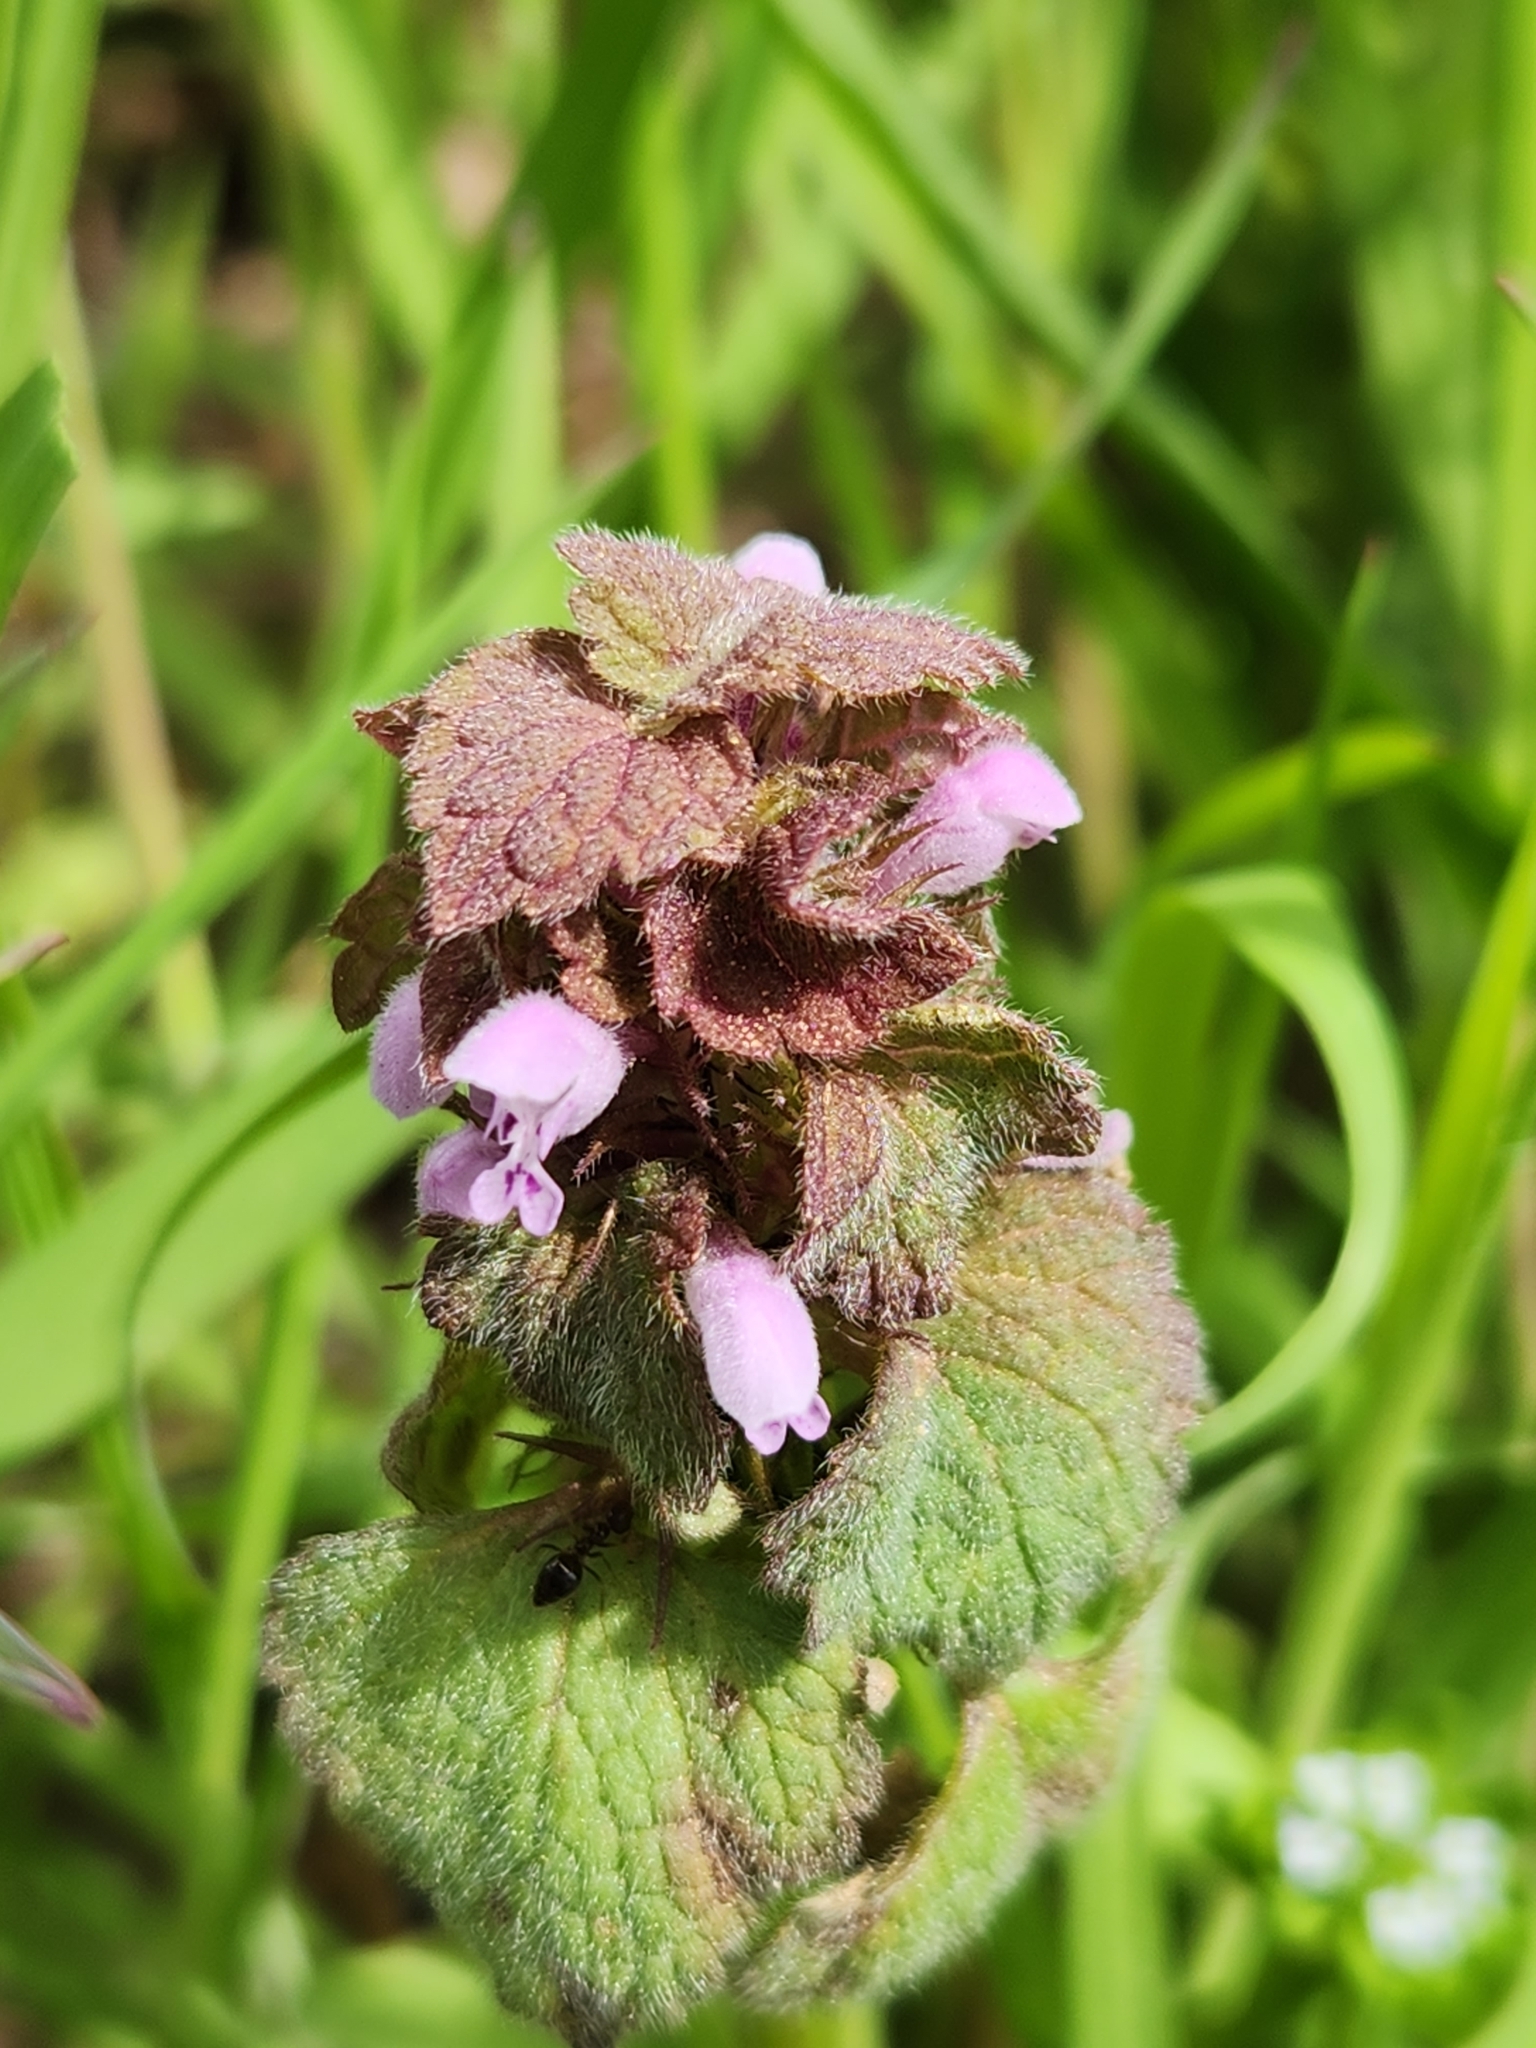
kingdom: Plantae
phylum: Tracheophyta
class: Magnoliopsida
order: Lamiales
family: Lamiaceae
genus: Lamium
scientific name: Lamium purpureum
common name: Red dead-nettle
